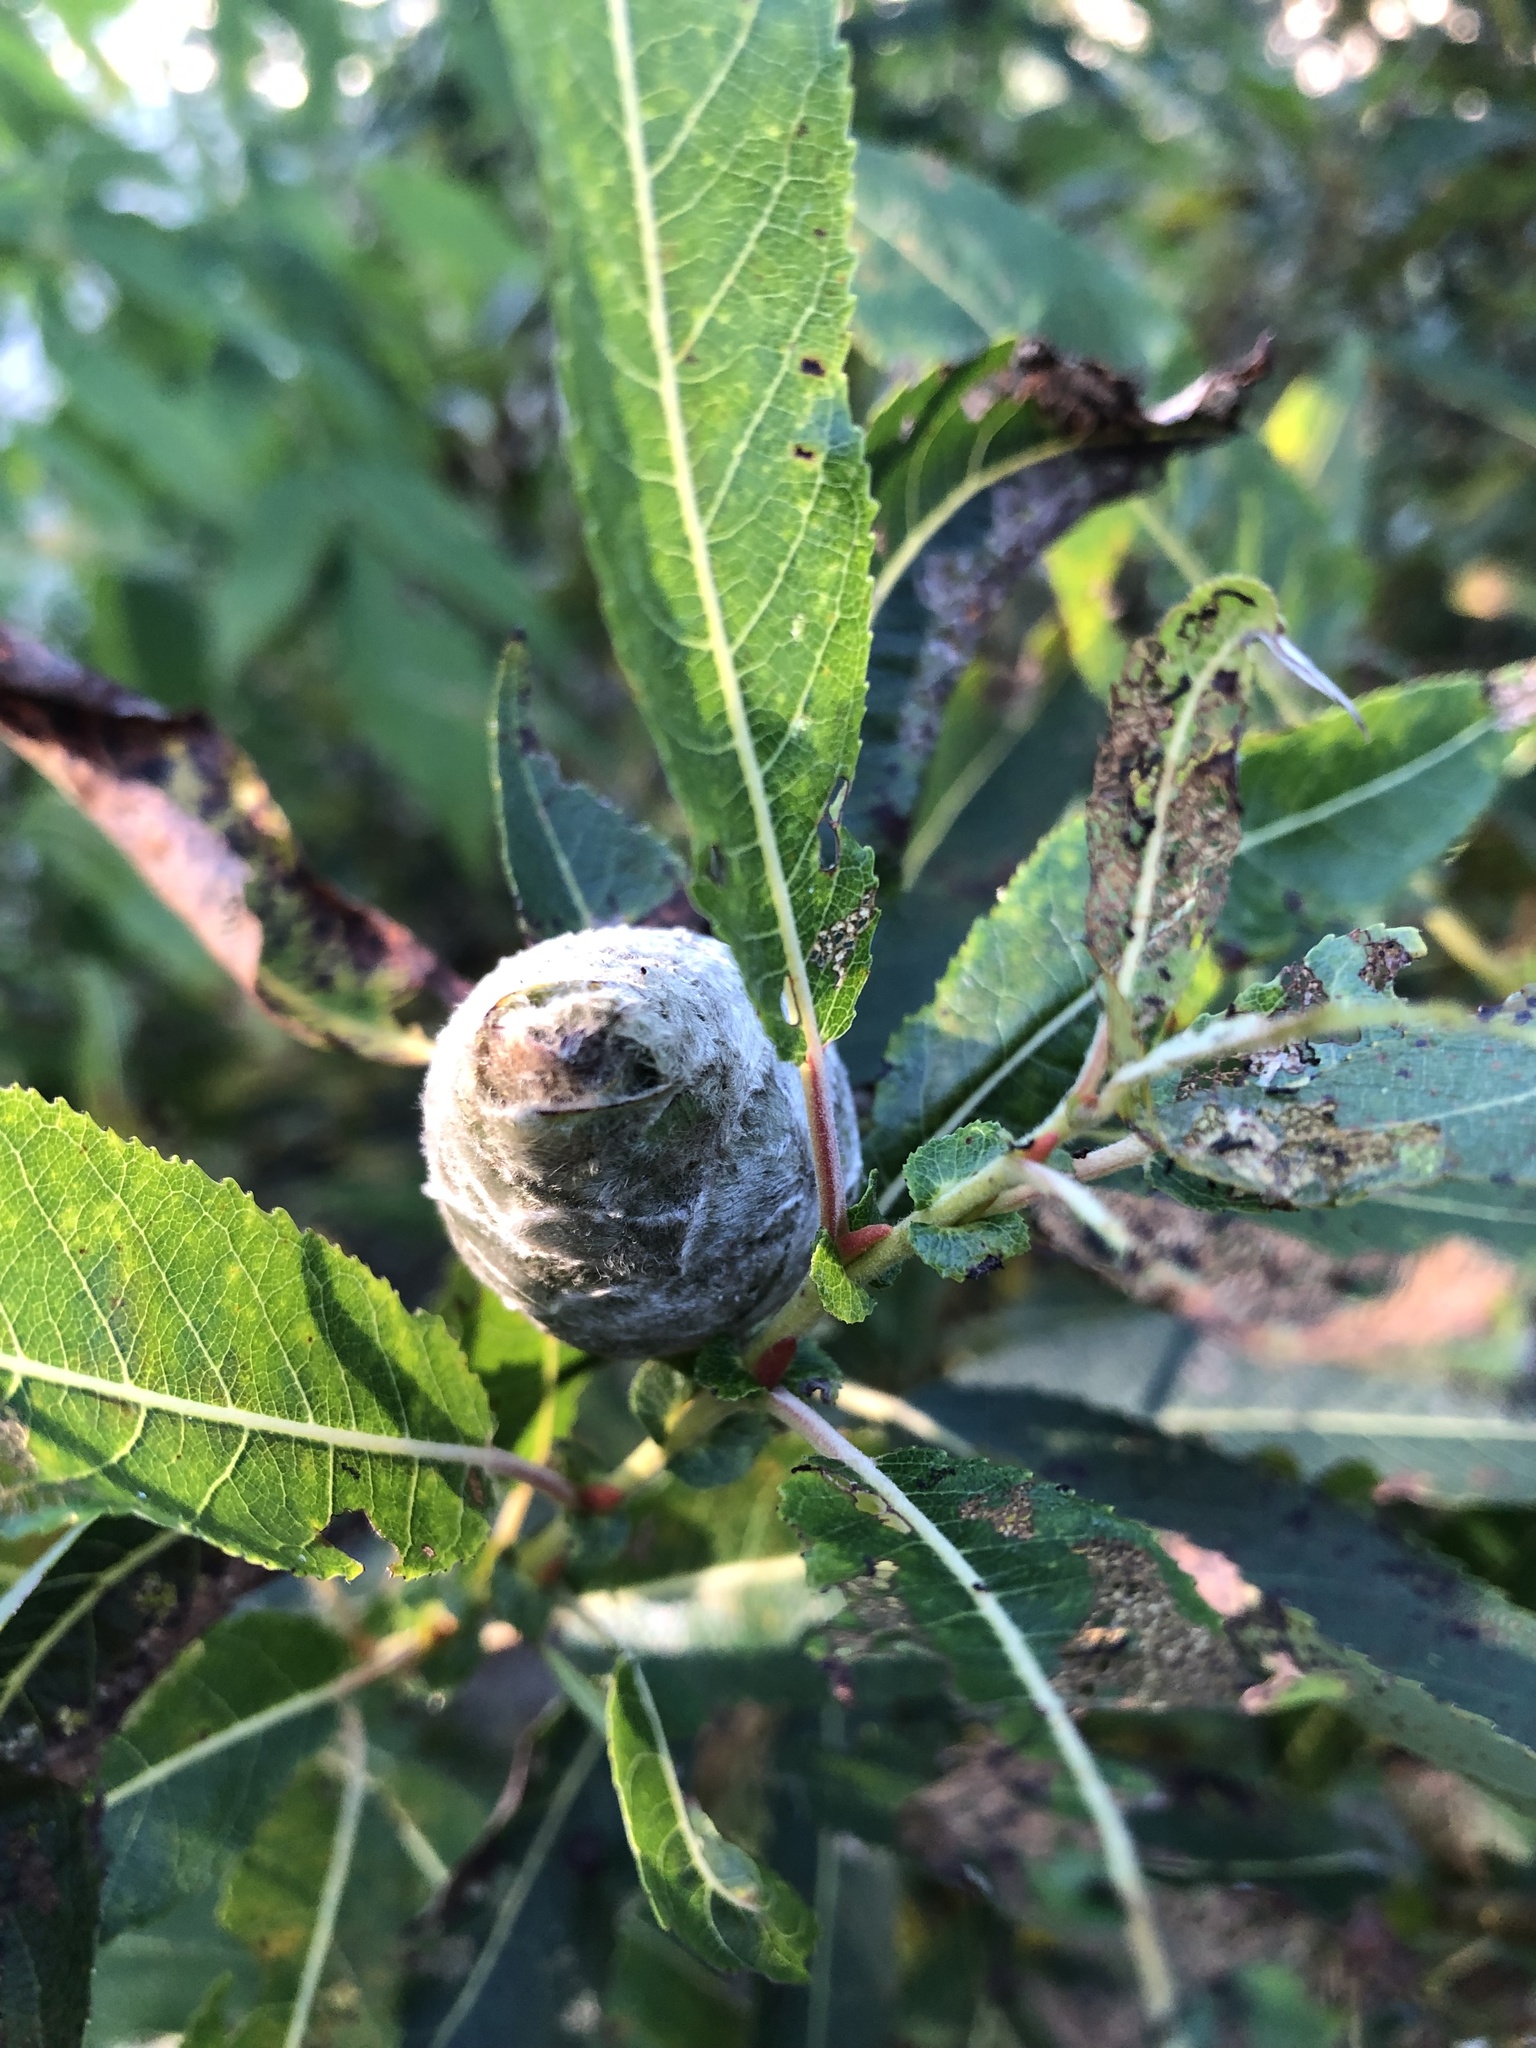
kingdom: Animalia
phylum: Arthropoda
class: Insecta
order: Diptera
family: Cecidomyiidae
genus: Rabdophaga
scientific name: Rabdophaga strobiloides
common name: Willow pinecone gall midge
